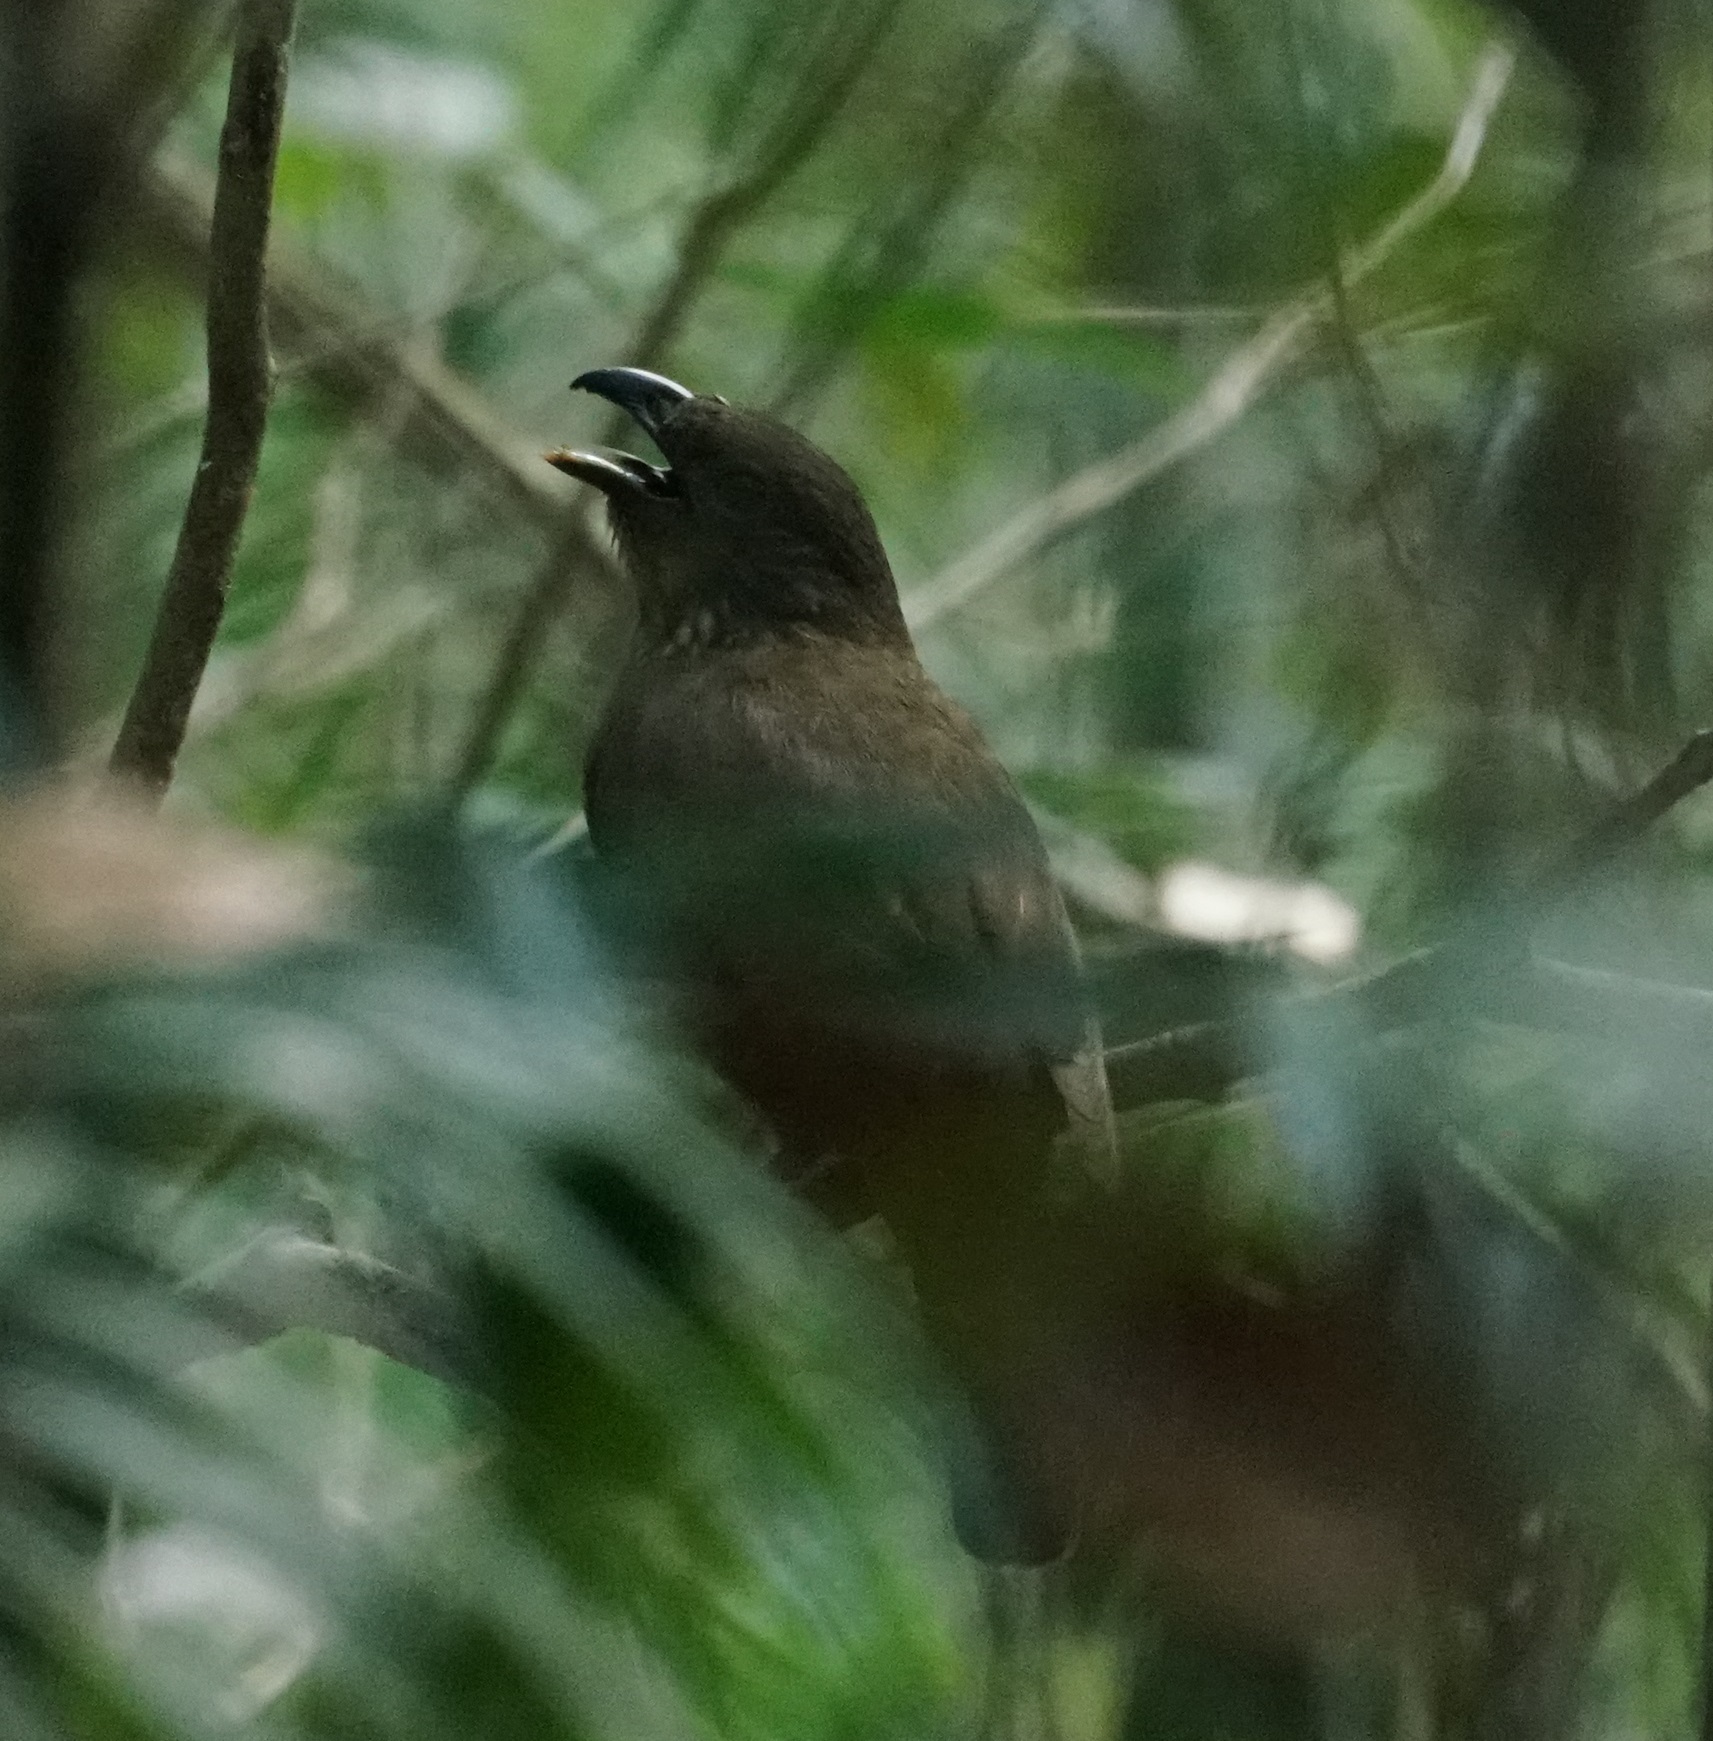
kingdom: Animalia
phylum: Chordata
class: Aves
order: Passeriformes
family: Ptilonorhynchidae
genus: Scenopoeetes
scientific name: Scenopoeetes dentirostris
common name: Tooth-billed bowerbird
